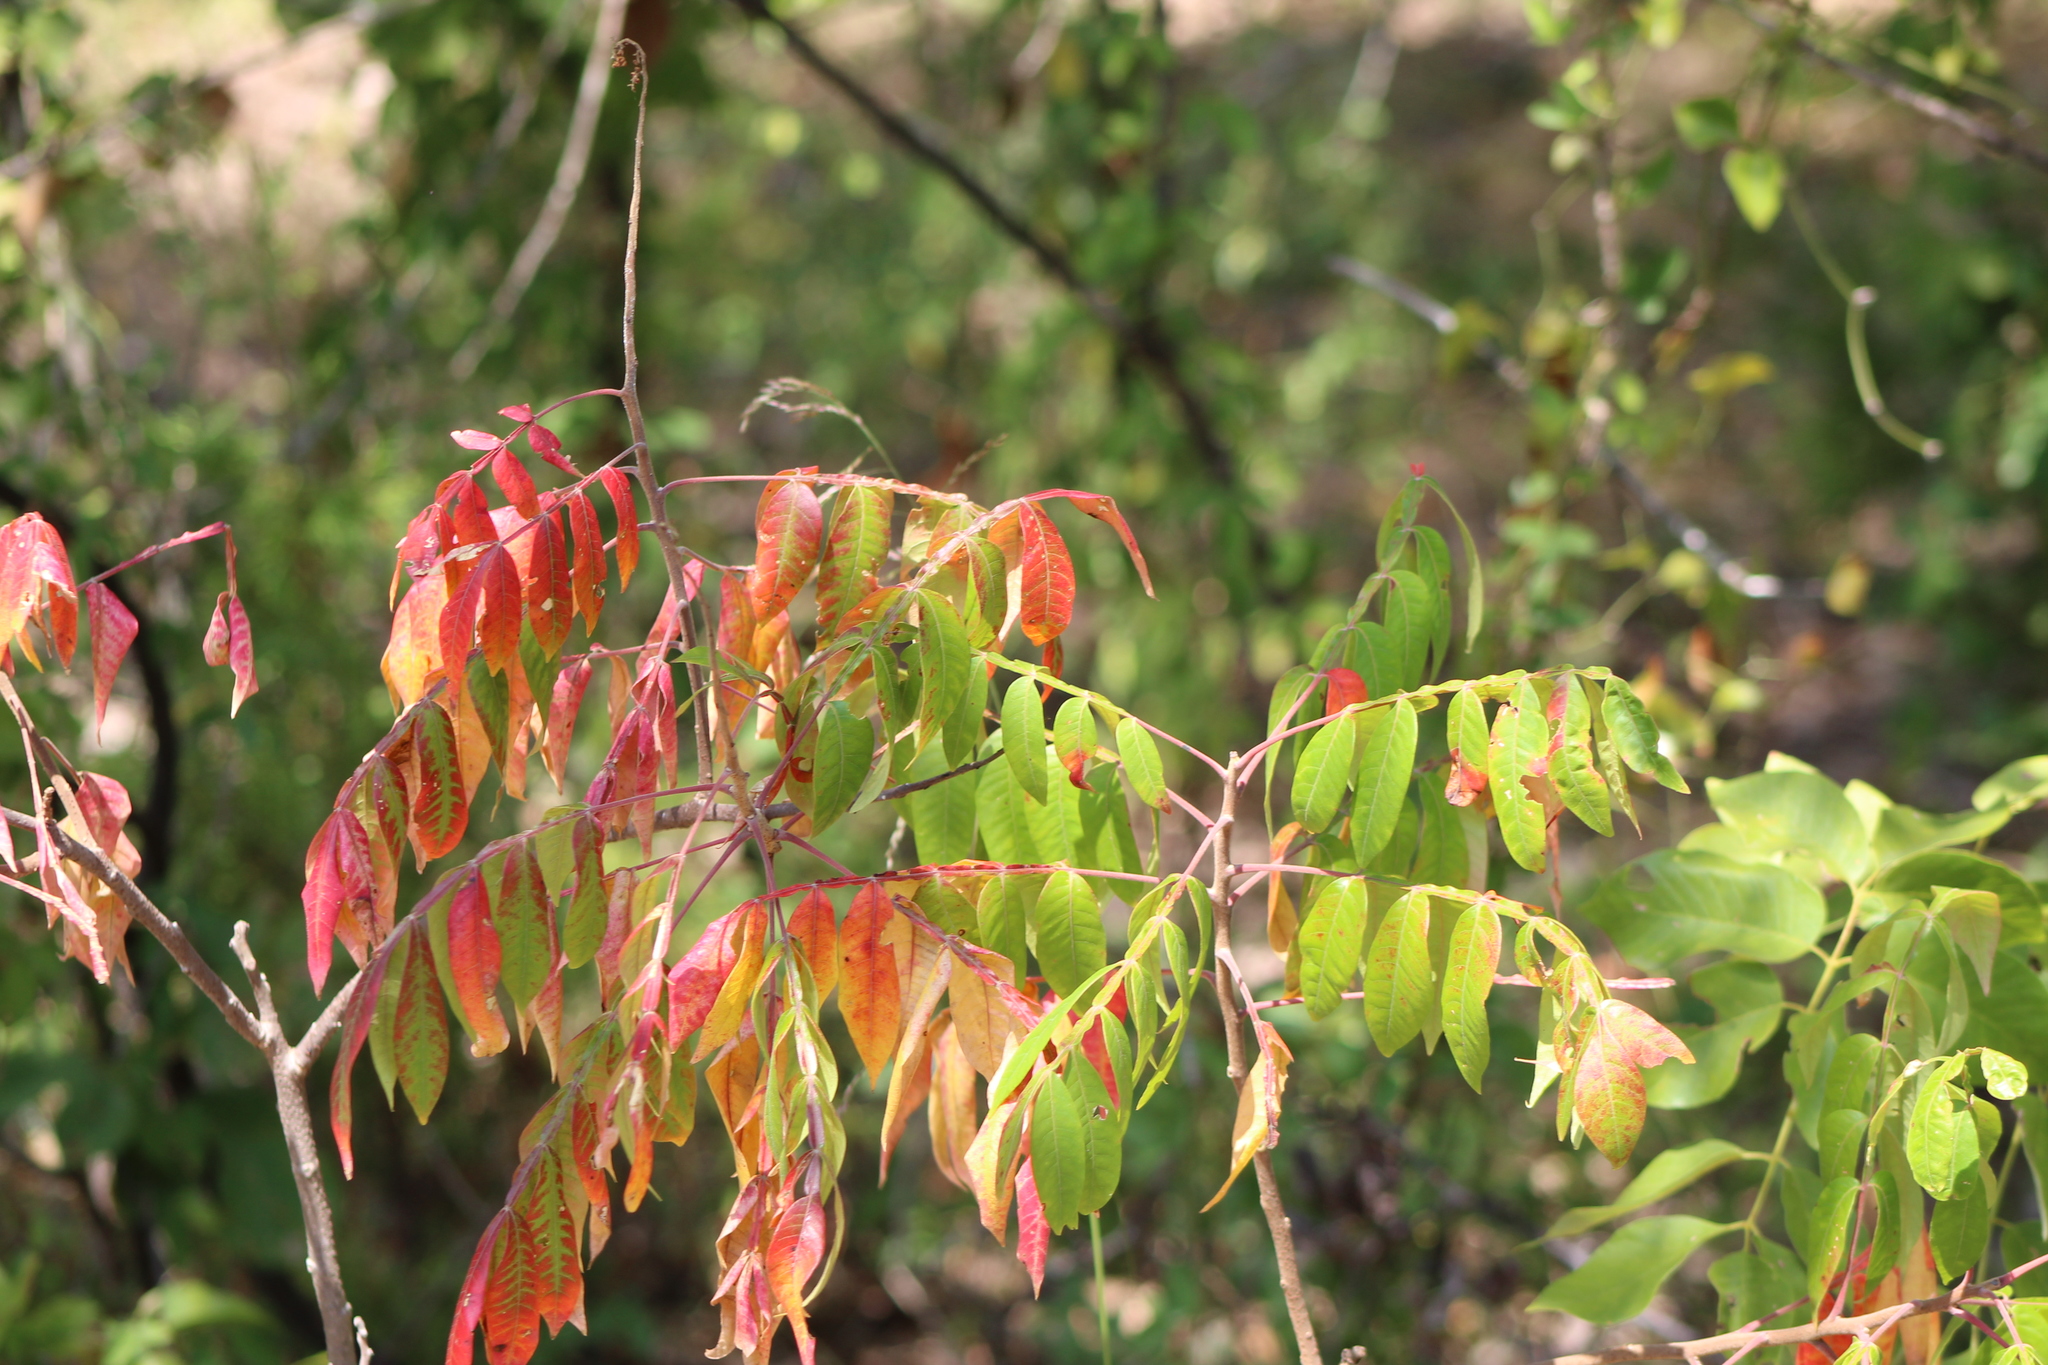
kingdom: Plantae
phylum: Tracheophyta
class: Magnoliopsida
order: Sapindales
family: Anacardiaceae
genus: Rhus
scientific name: Rhus glabra
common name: Scarlet sumac
